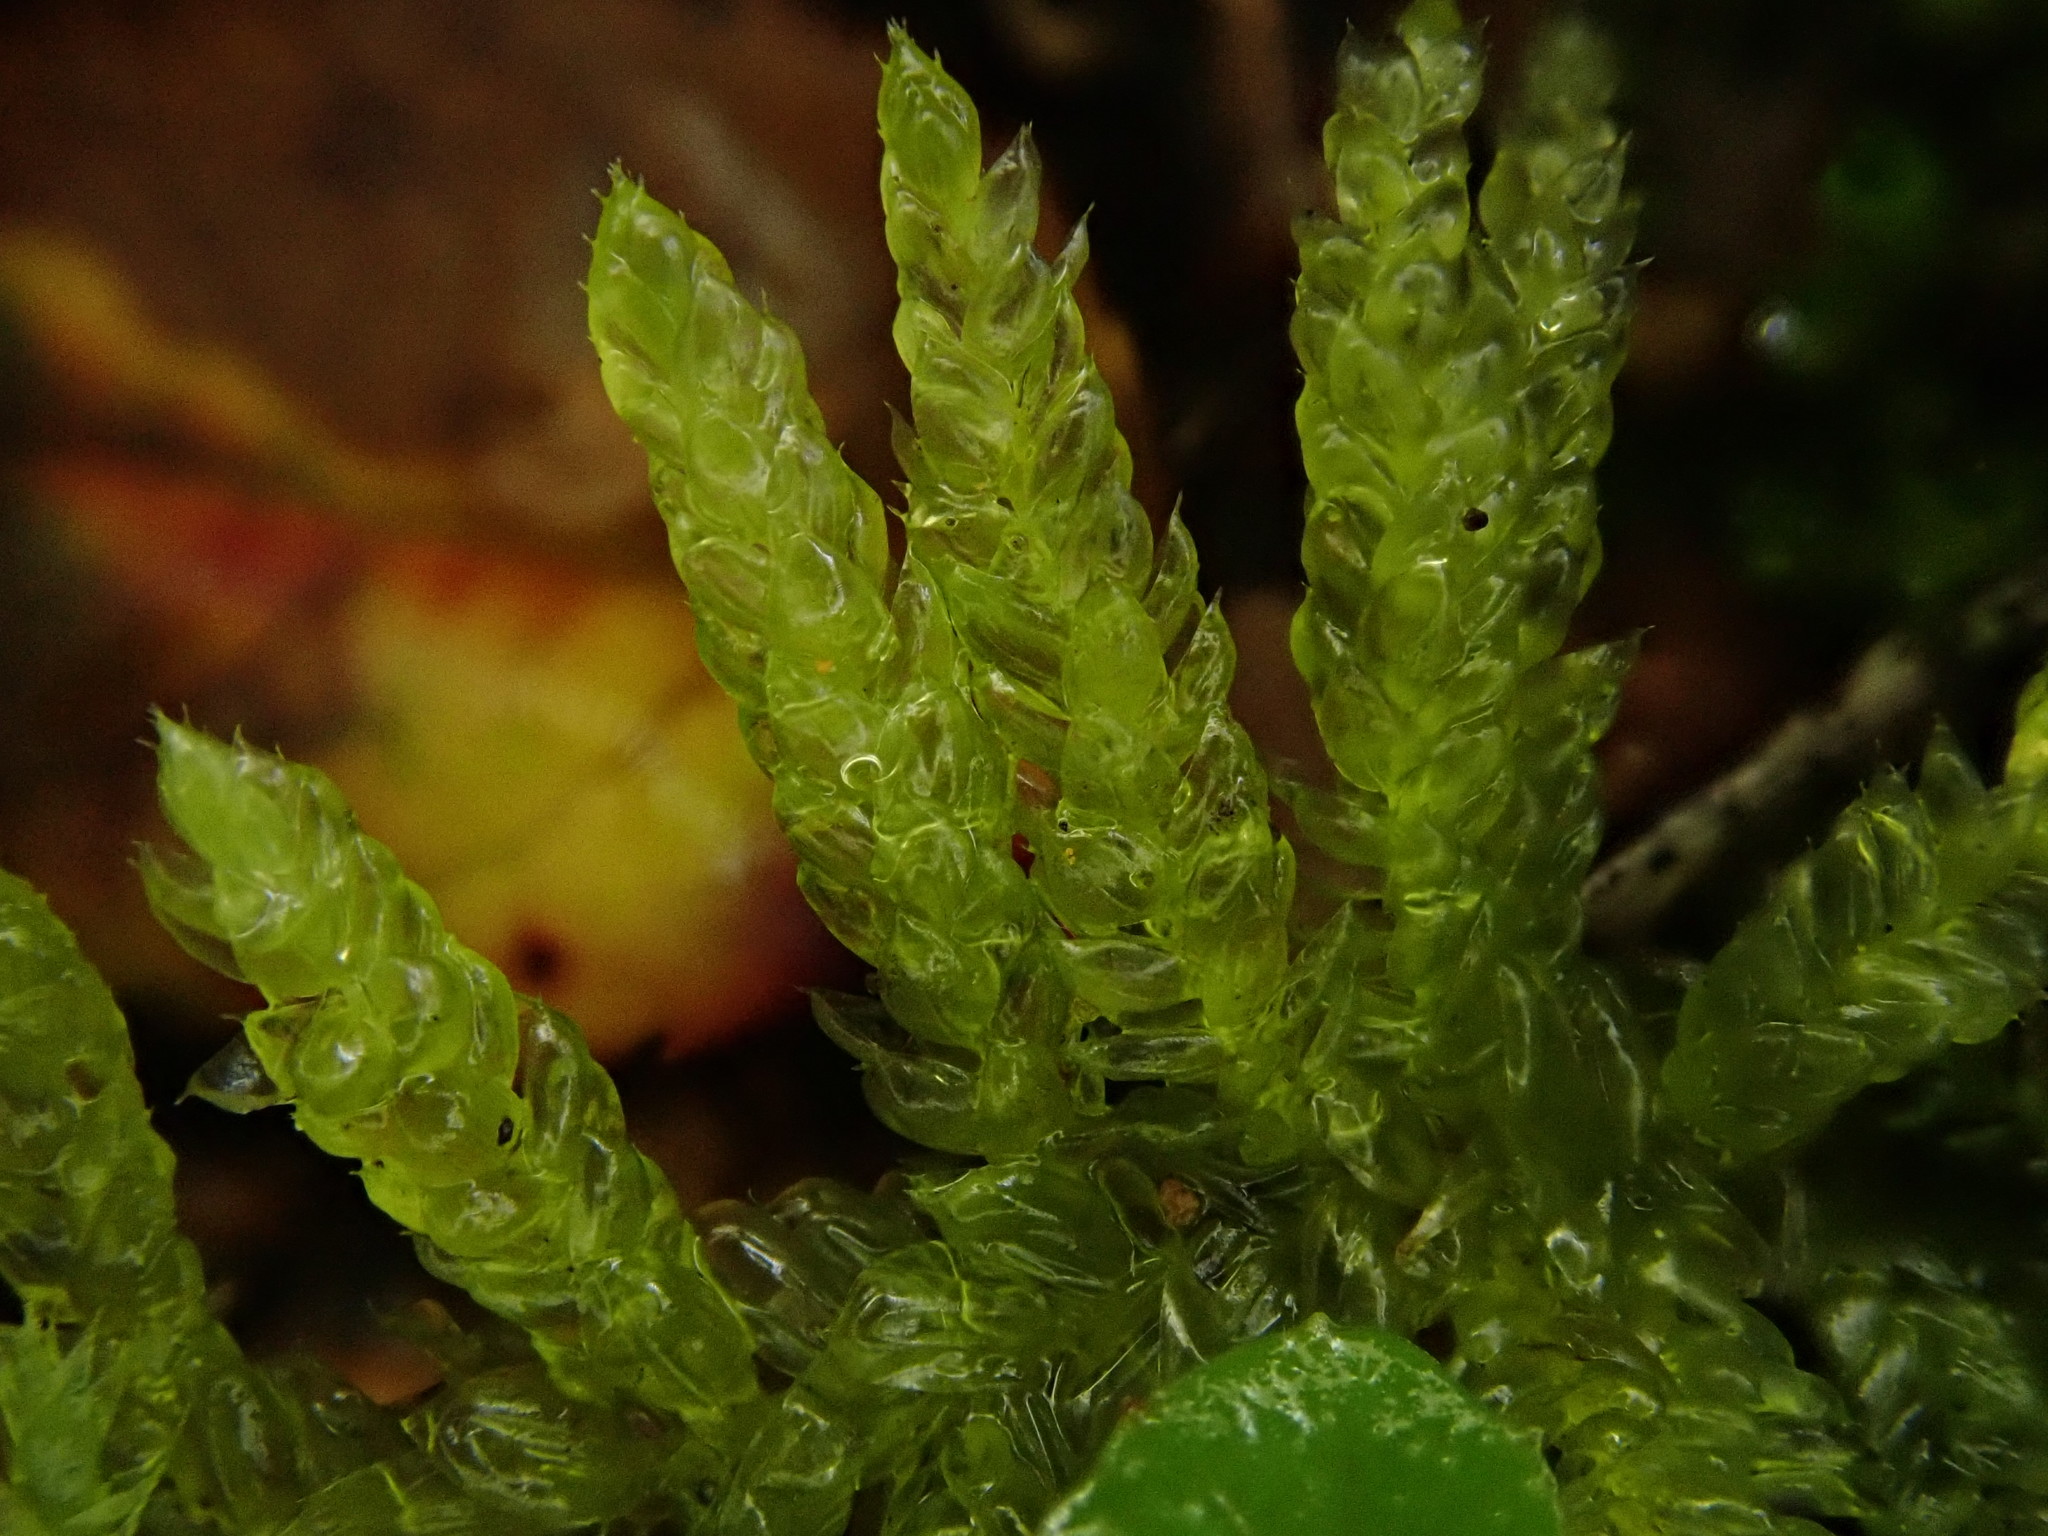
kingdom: Plantae
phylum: Bryophyta
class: Bryopsida
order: Hypnales
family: Brachytheciaceae
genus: Pseudoscleropodium
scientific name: Pseudoscleropodium purum
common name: Neat feather-moss
